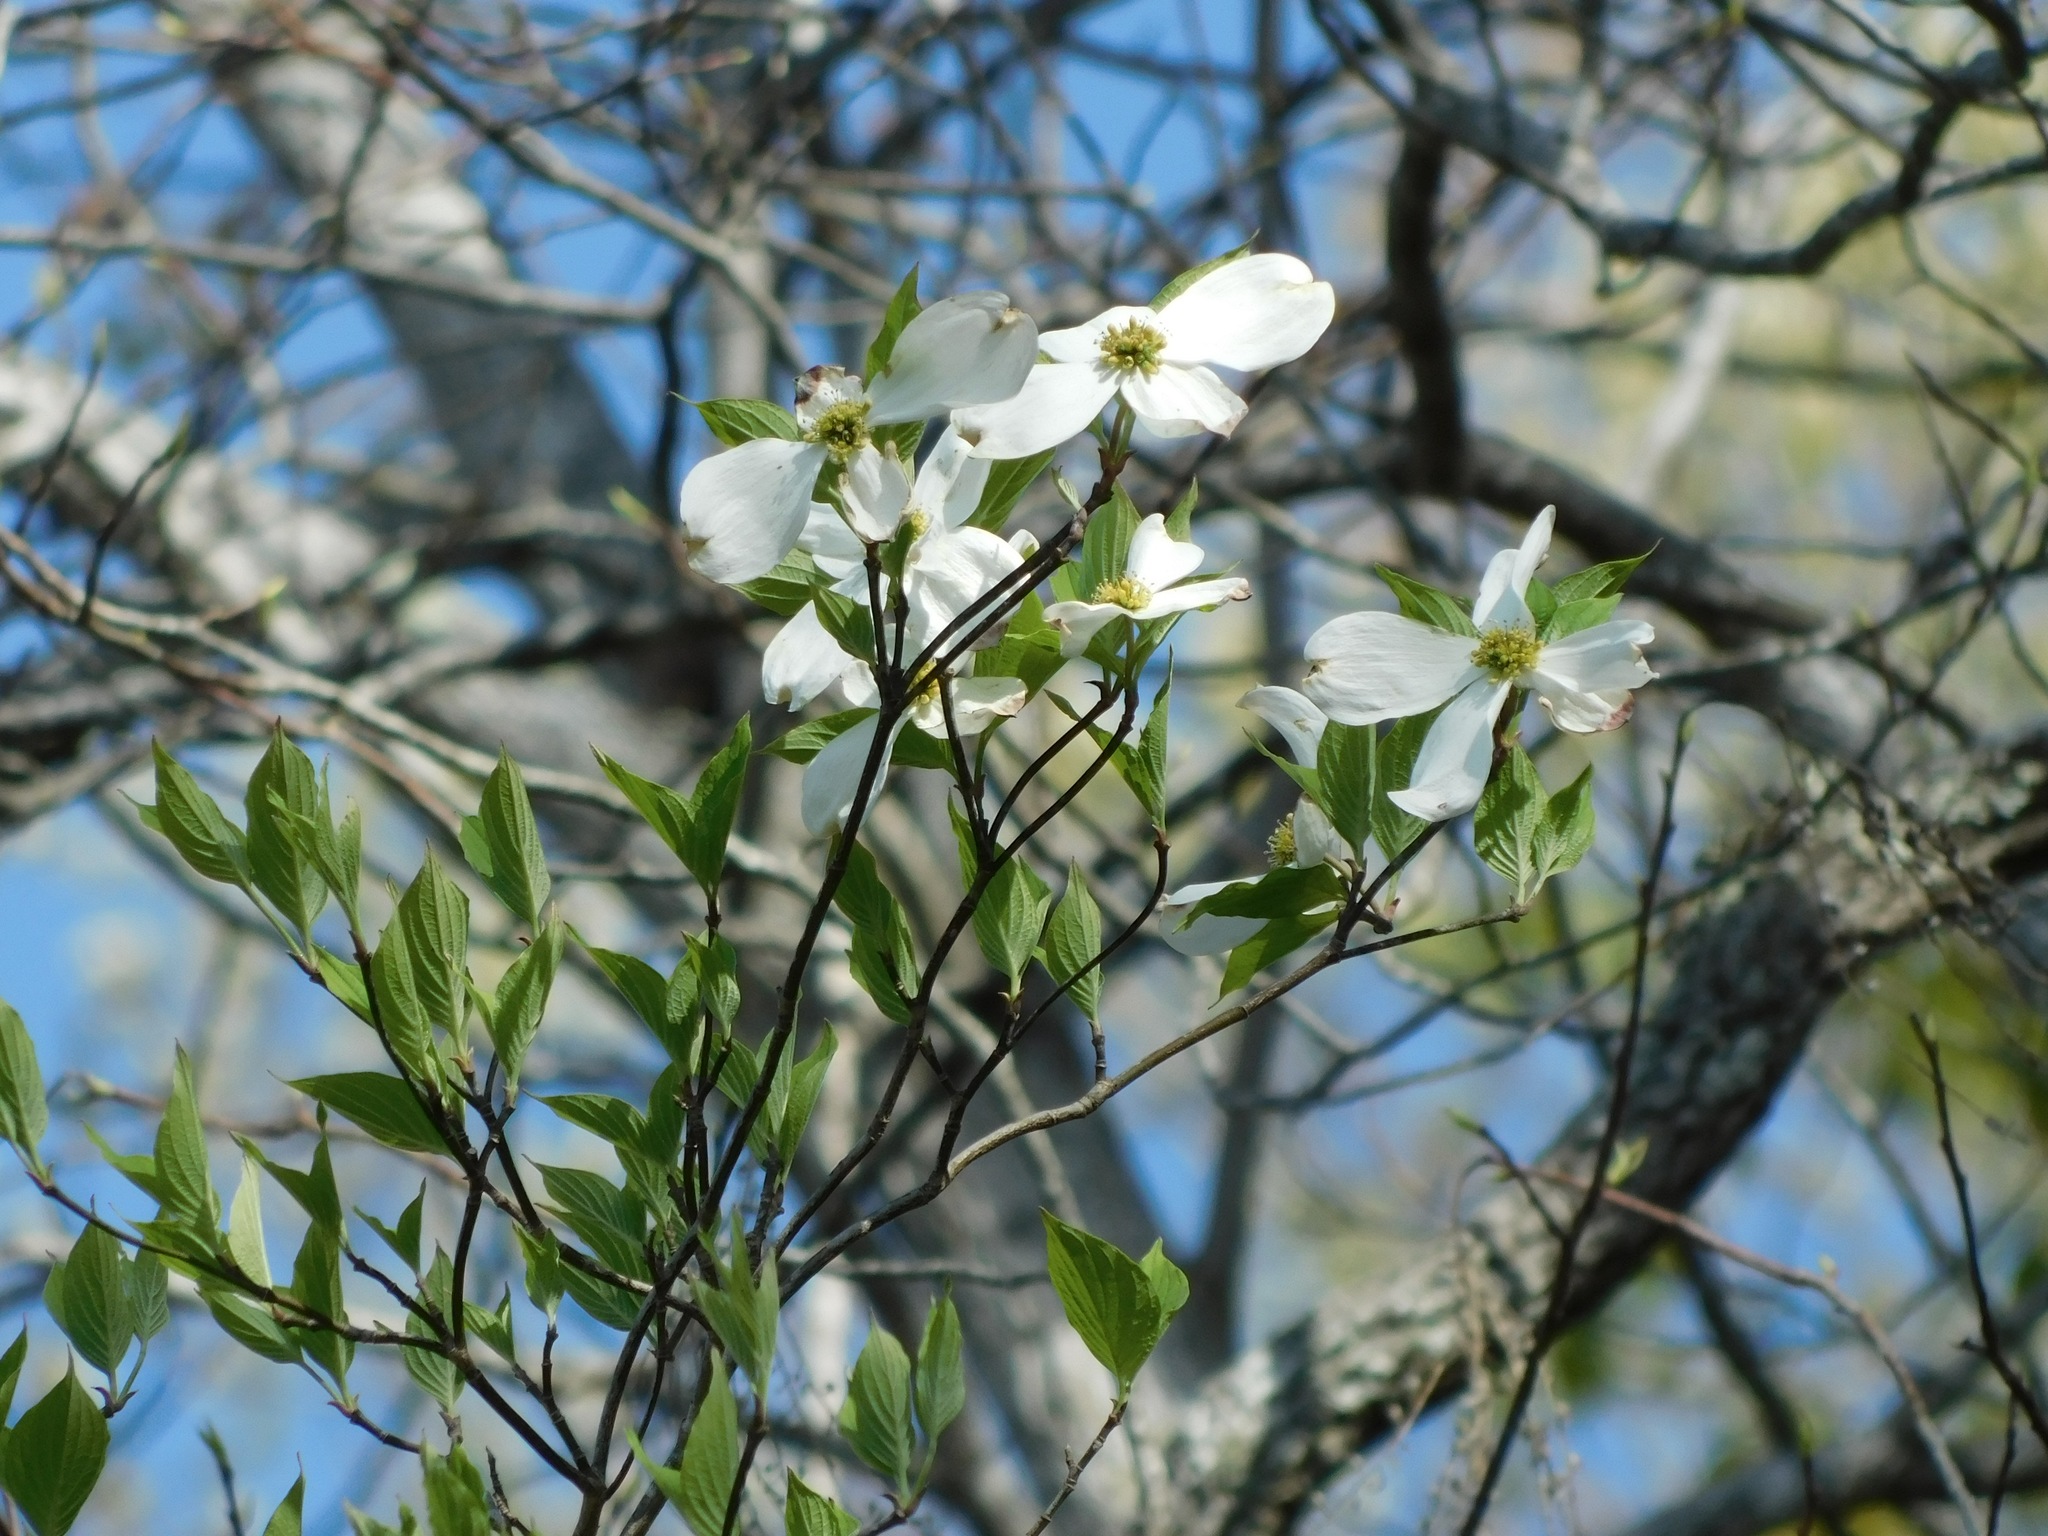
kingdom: Plantae
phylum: Tracheophyta
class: Magnoliopsida
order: Cornales
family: Cornaceae
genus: Cornus
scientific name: Cornus florida
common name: Flowering dogwood
